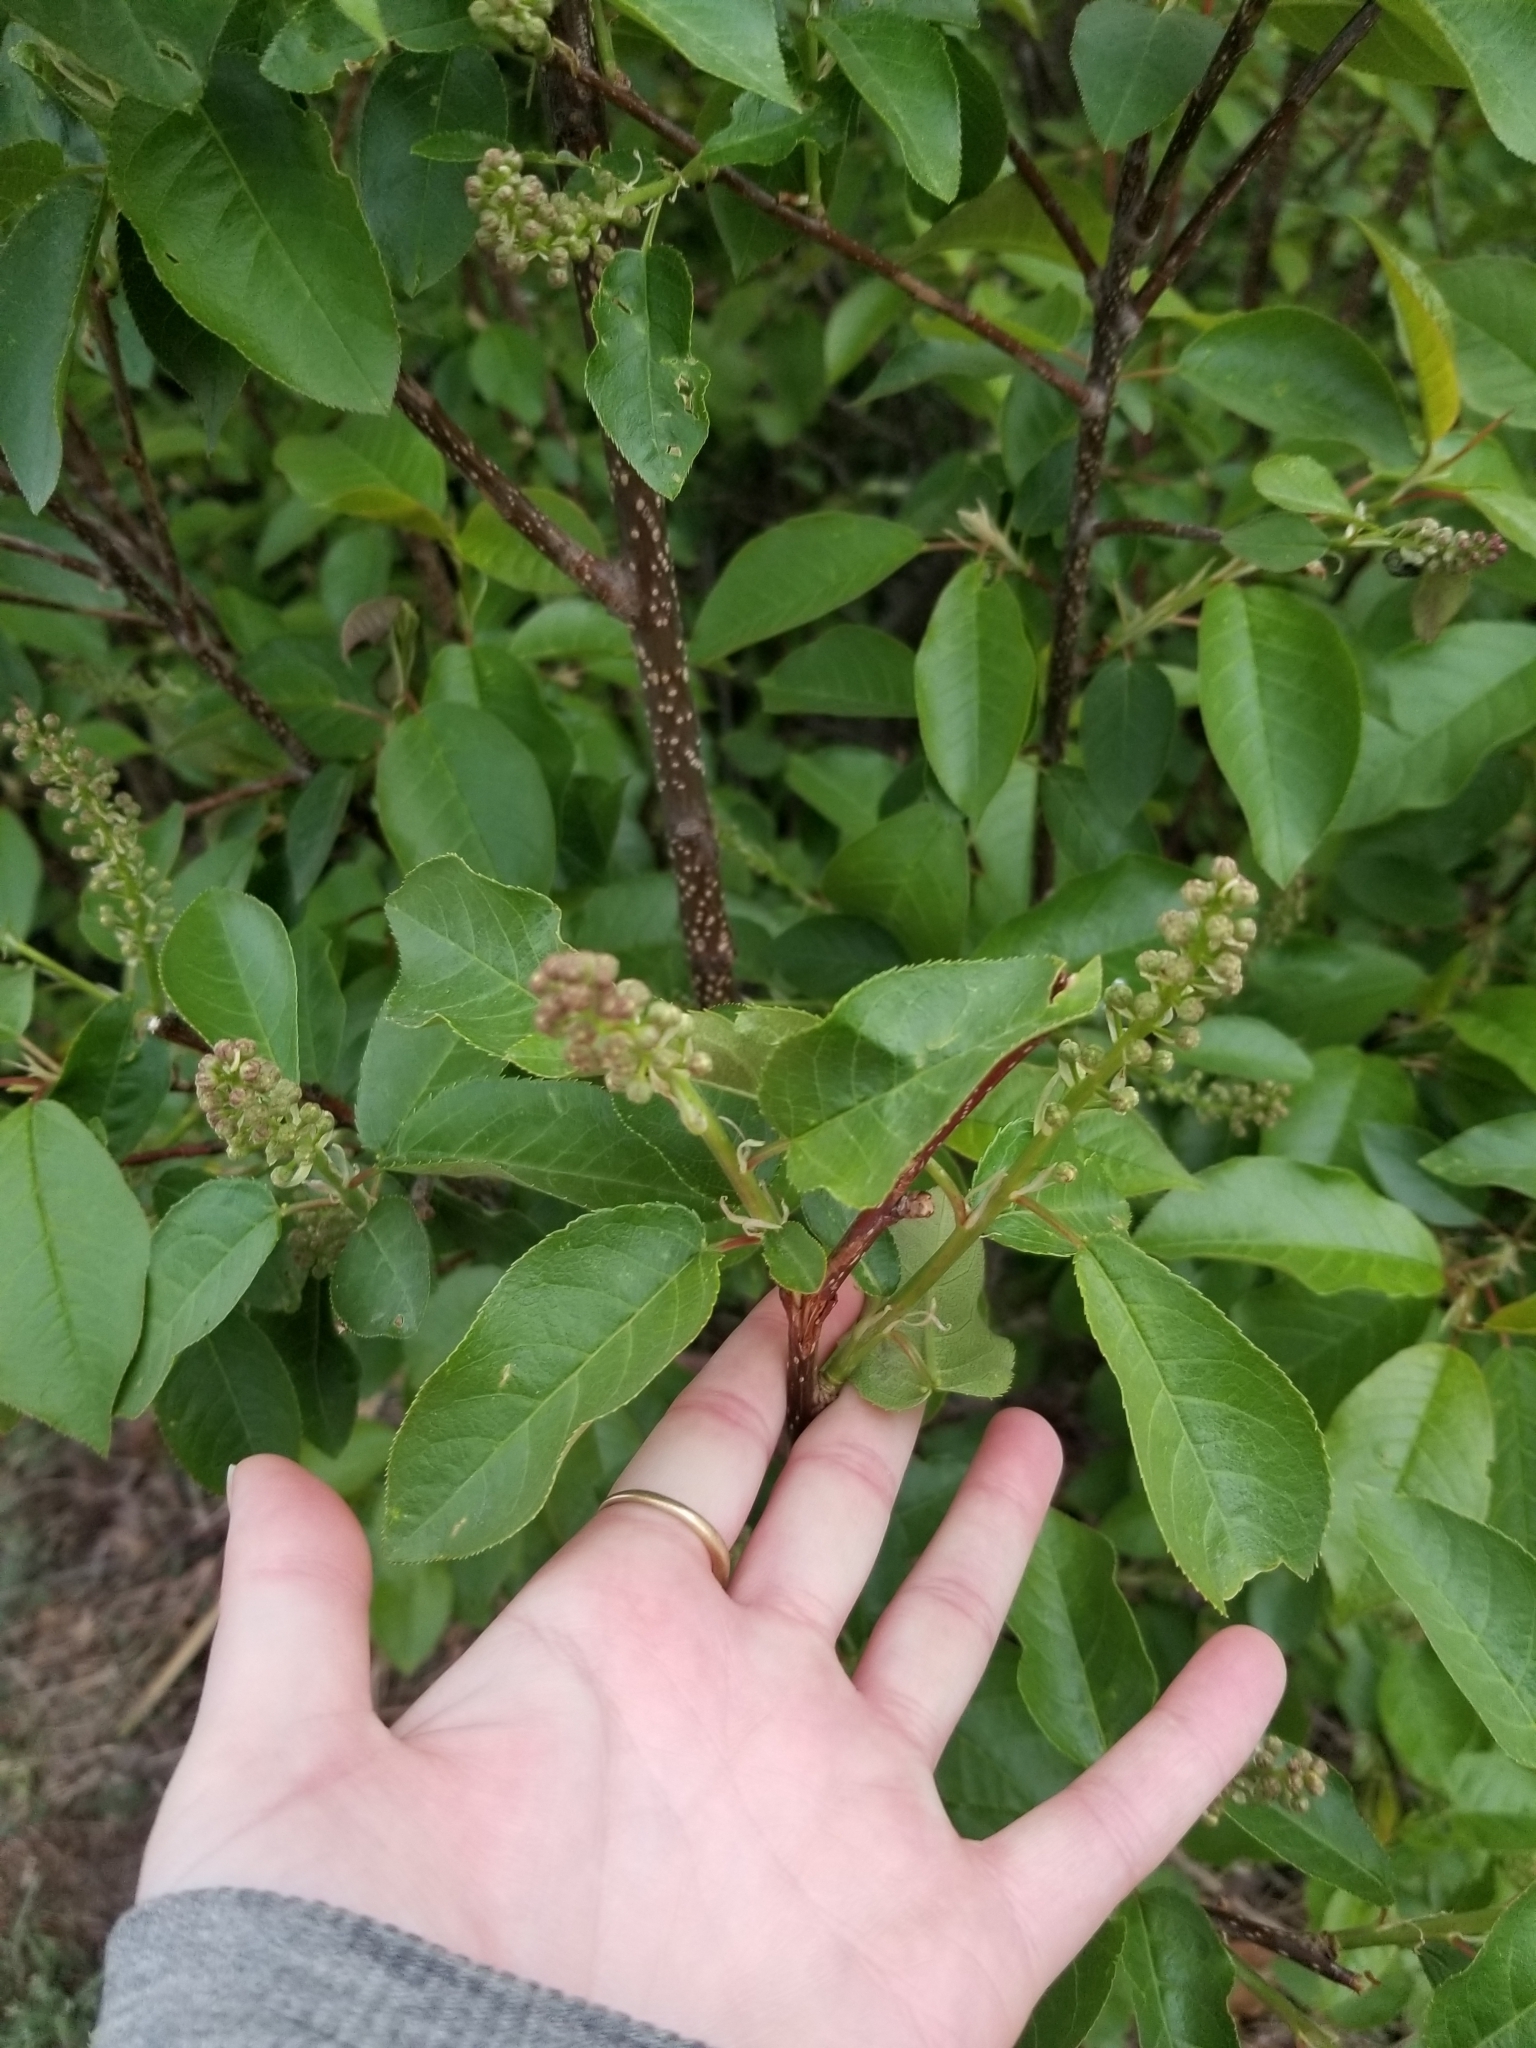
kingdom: Plantae
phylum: Tracheophyta
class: Magnoliopsida
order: Rosales
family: Rosaceae
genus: Prunus
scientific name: Prunus virginiana
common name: Chokecherry
